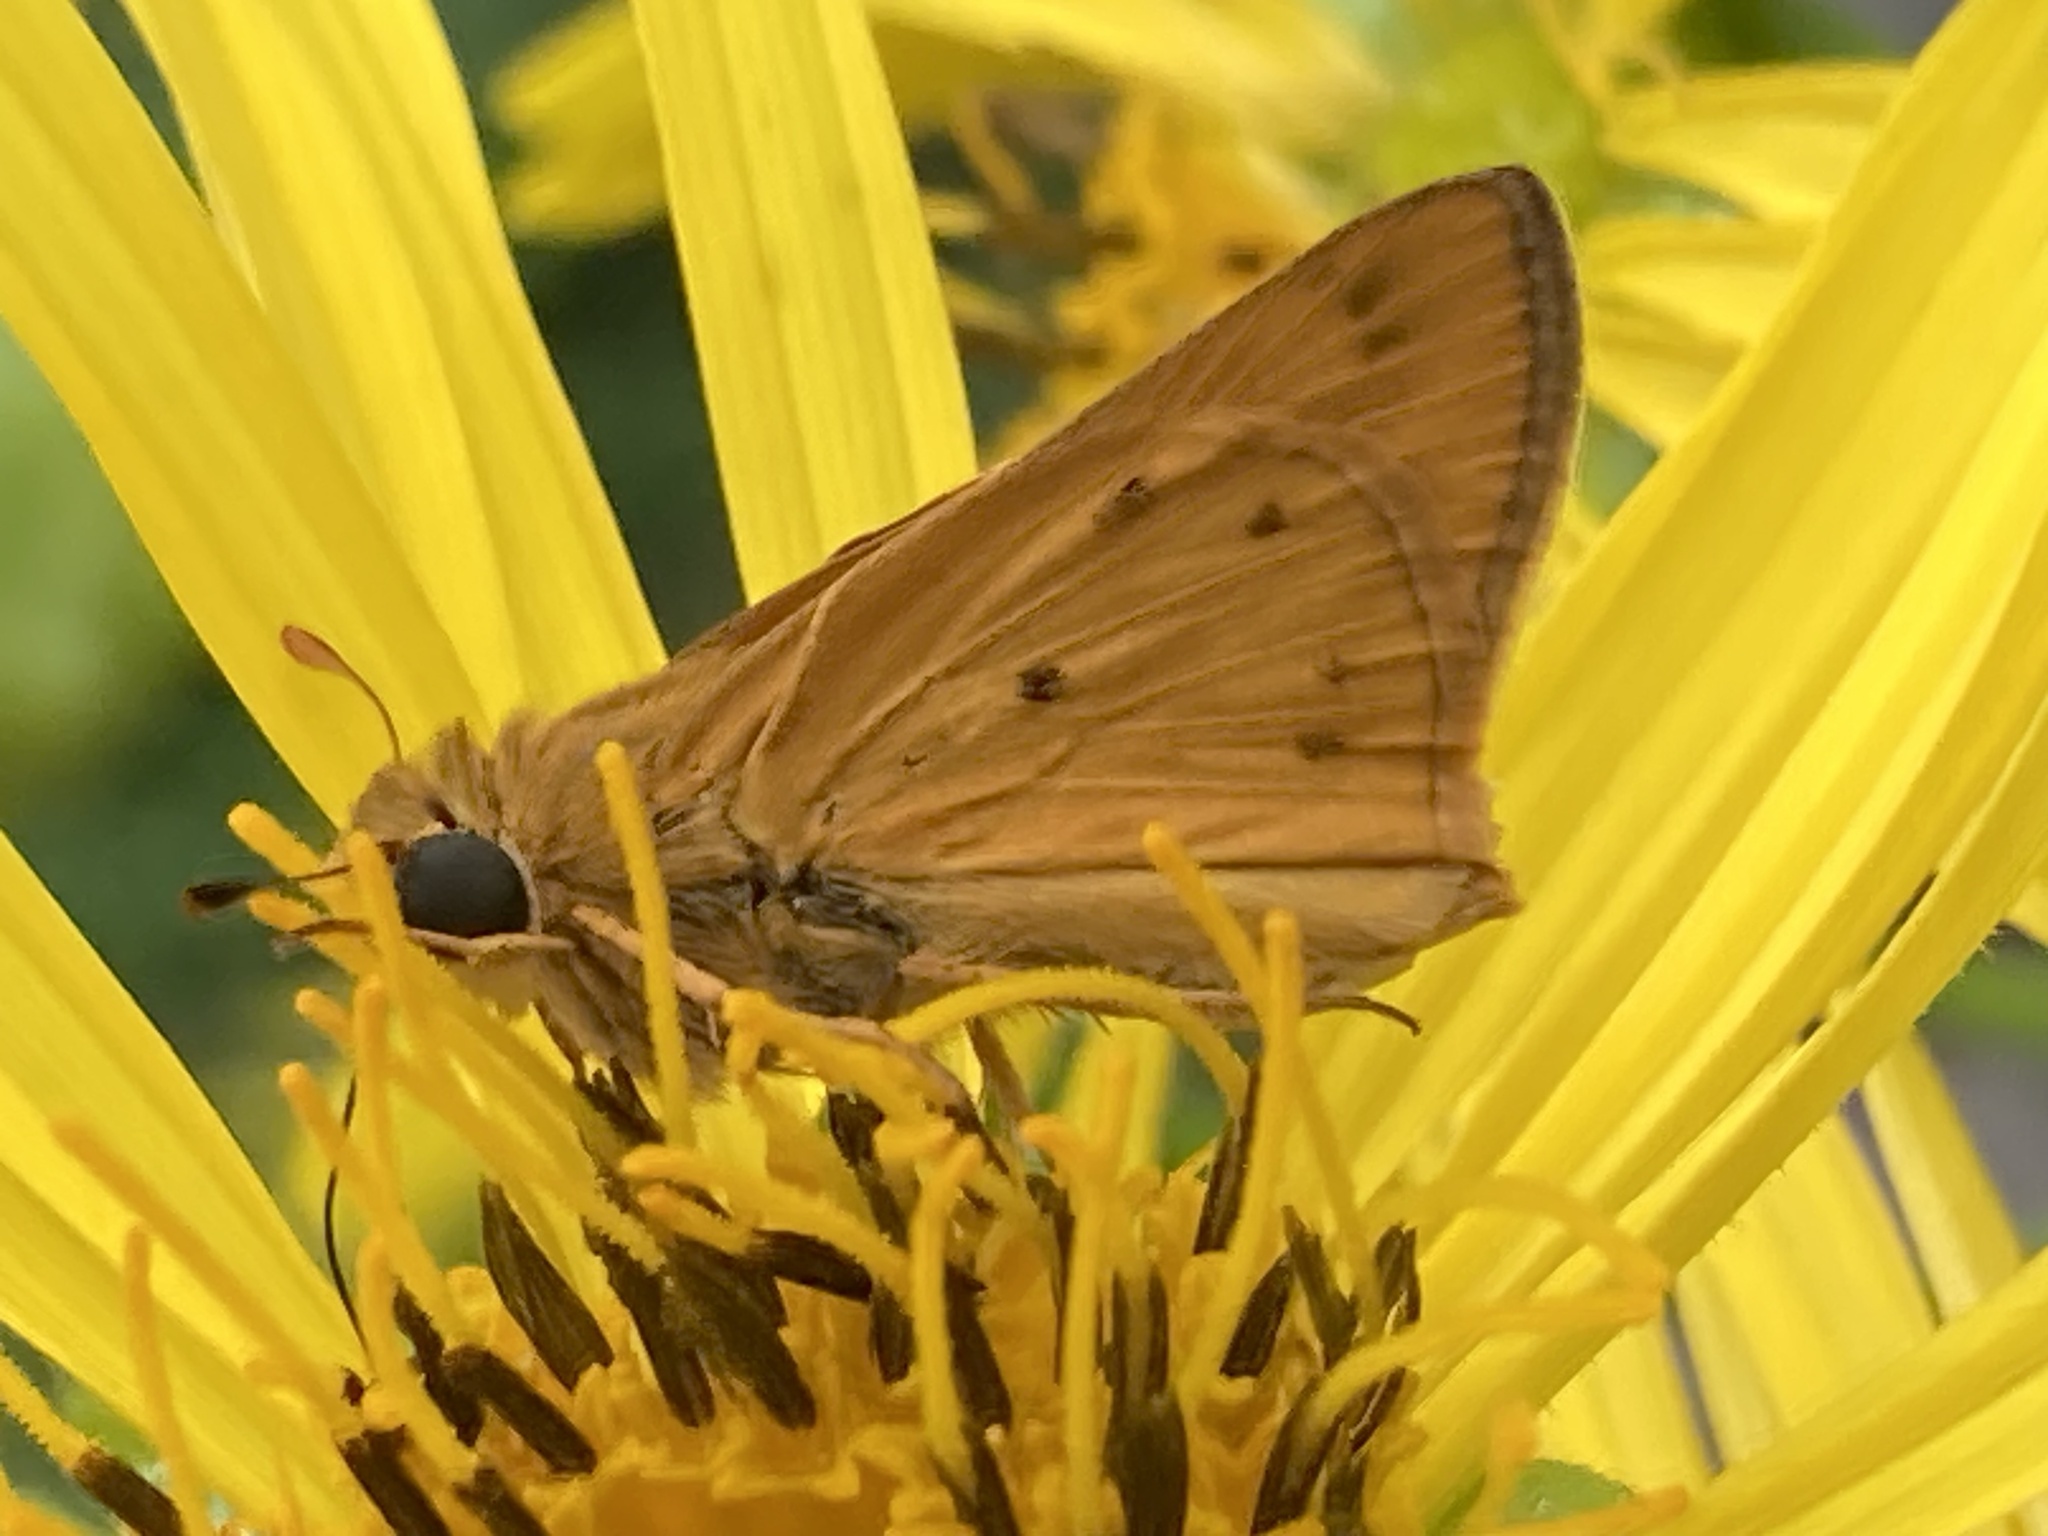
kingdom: Animalia
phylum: Arthropoda
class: Insecta
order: Lepidoptera
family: Hesperiidae
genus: Hylephila
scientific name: Hylephila phyleus
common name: Fiery skipper
